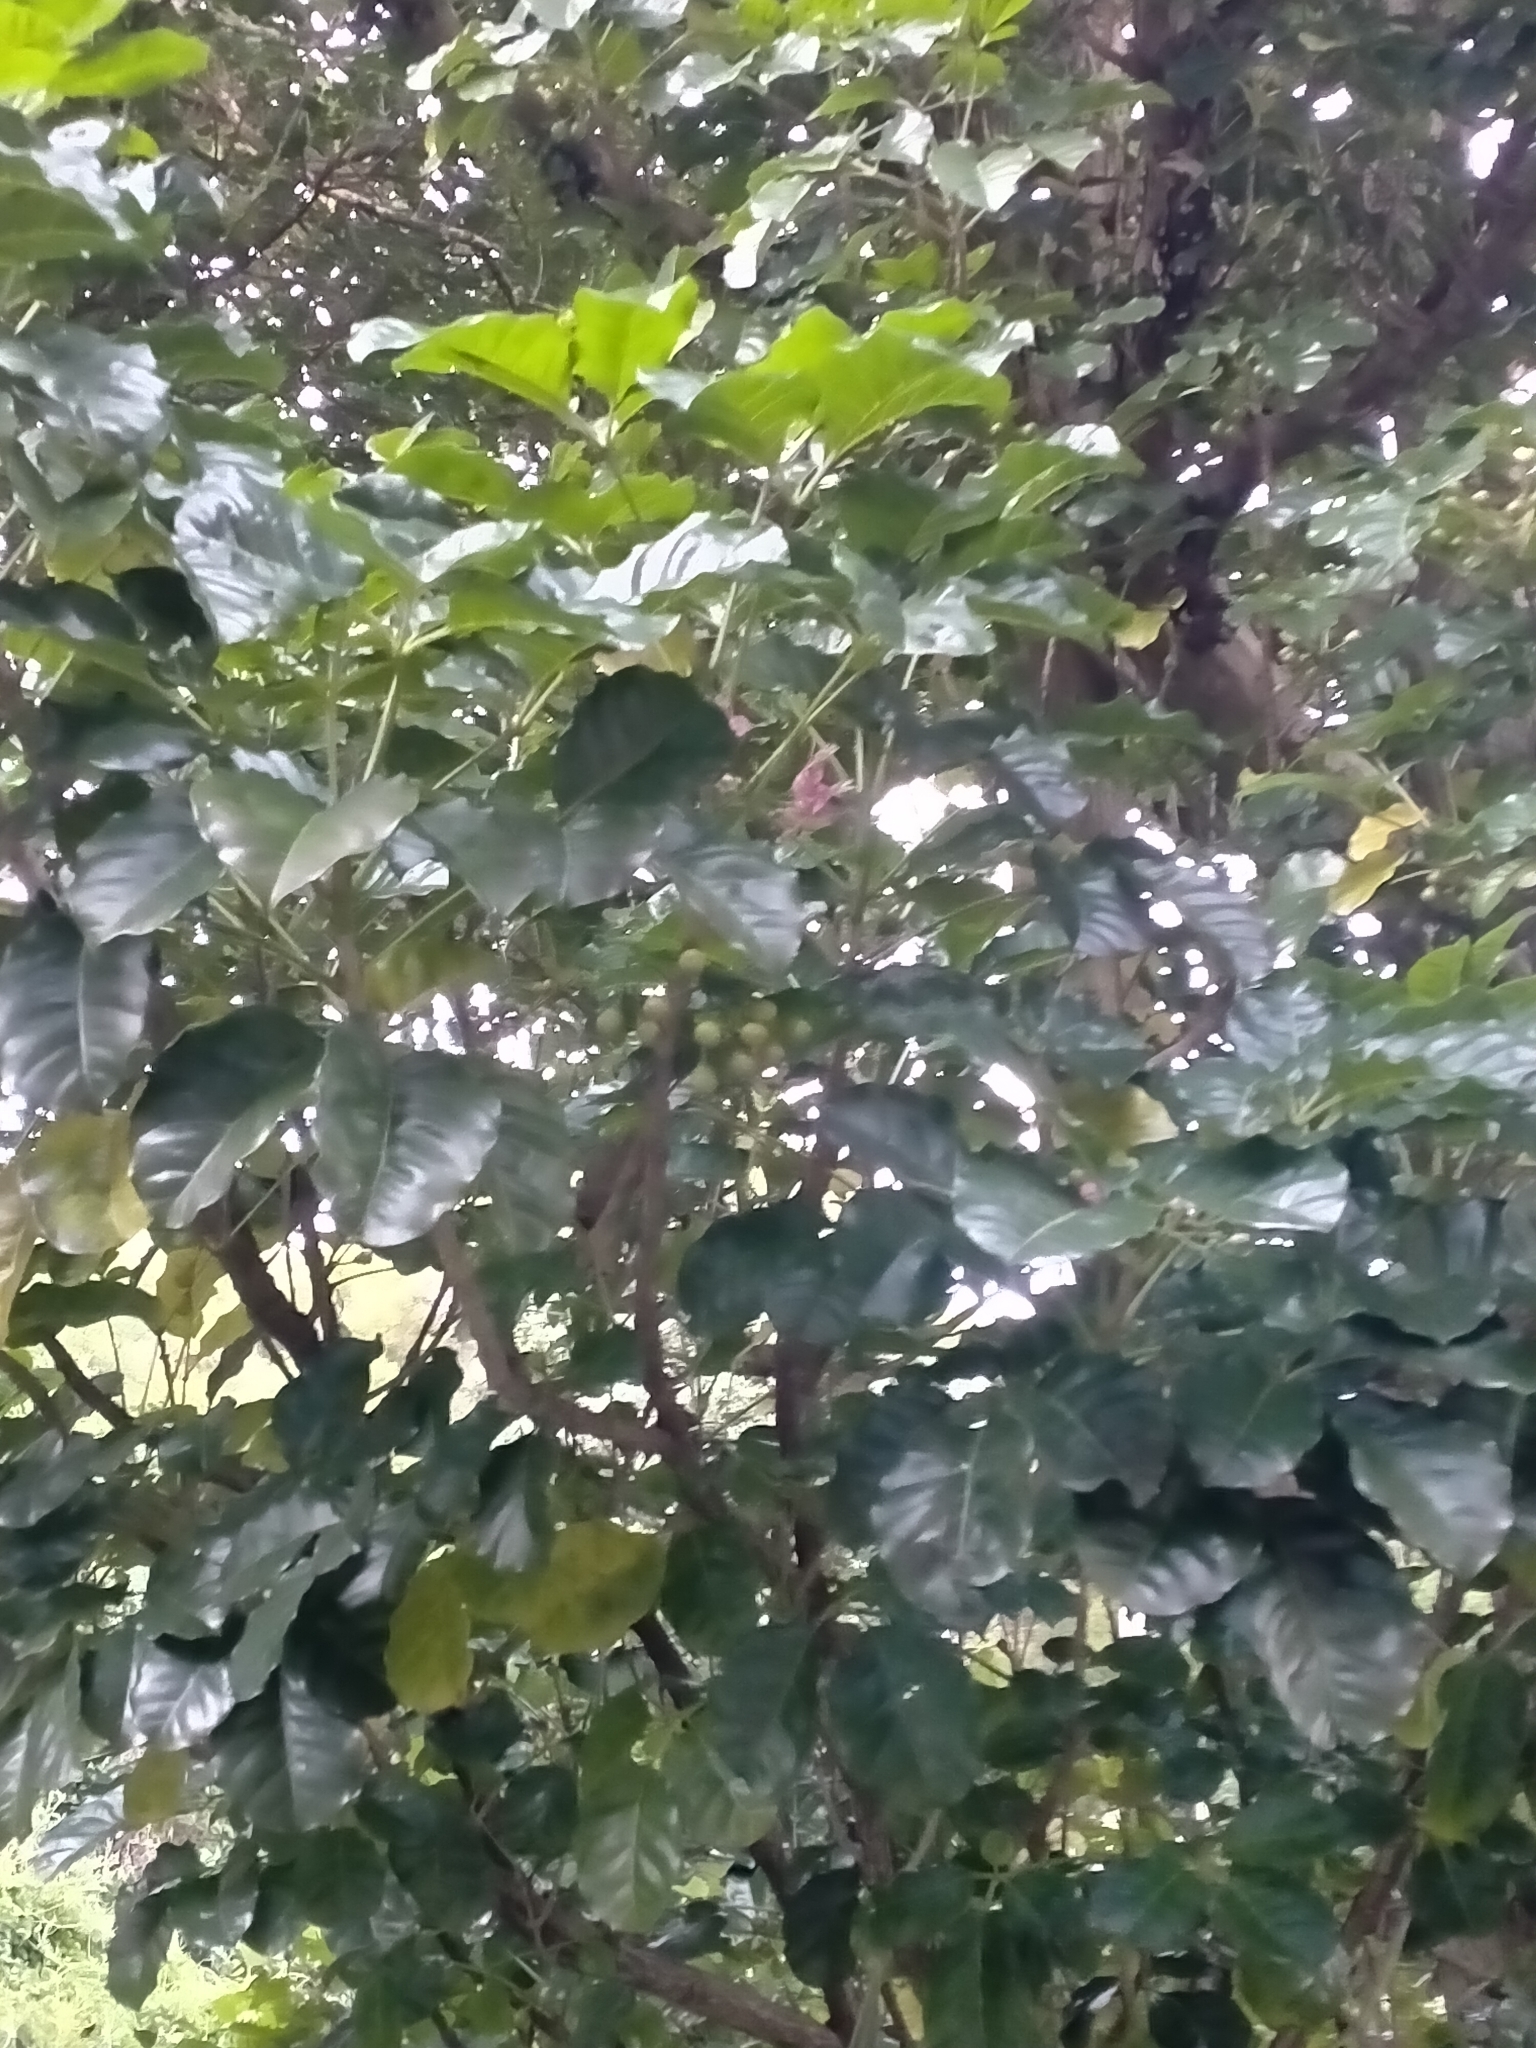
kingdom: Plantae
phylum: Tracheophyta
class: Magnoliopsida
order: Lamiales
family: Lamiaceae
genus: Vitex
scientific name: Vitex lucens
